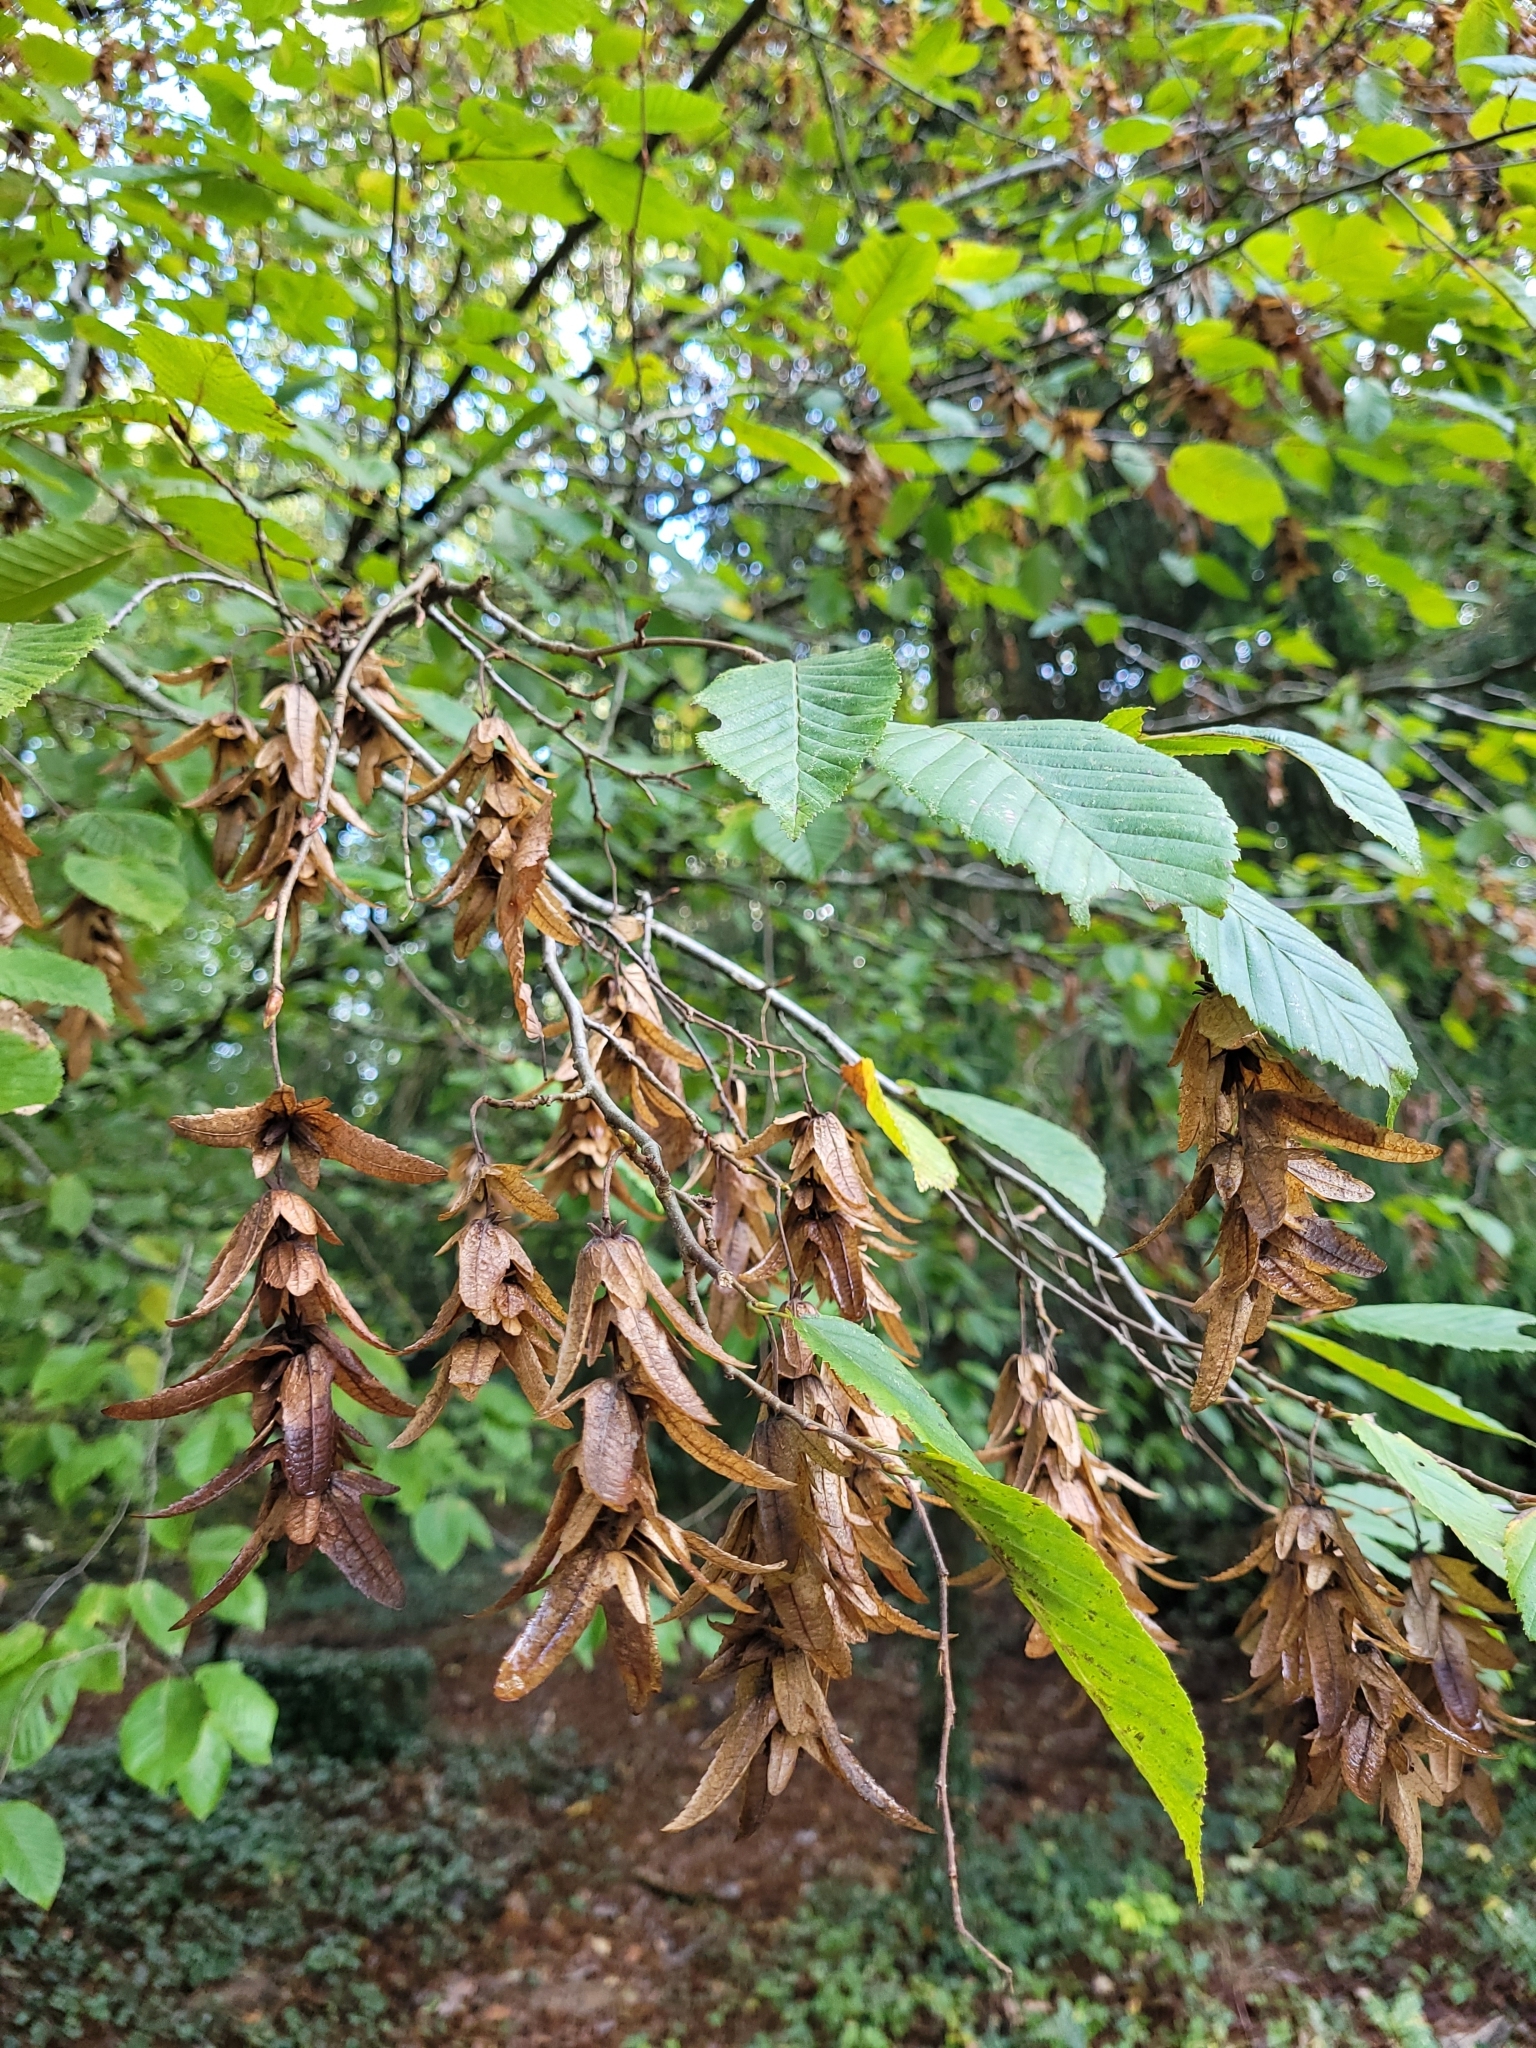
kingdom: Plantae
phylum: Tracheophyta
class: Magnoliopsida
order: Fagales
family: Betulaceae
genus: Carpinus
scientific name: Carpinus betulus
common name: Hornbeam
